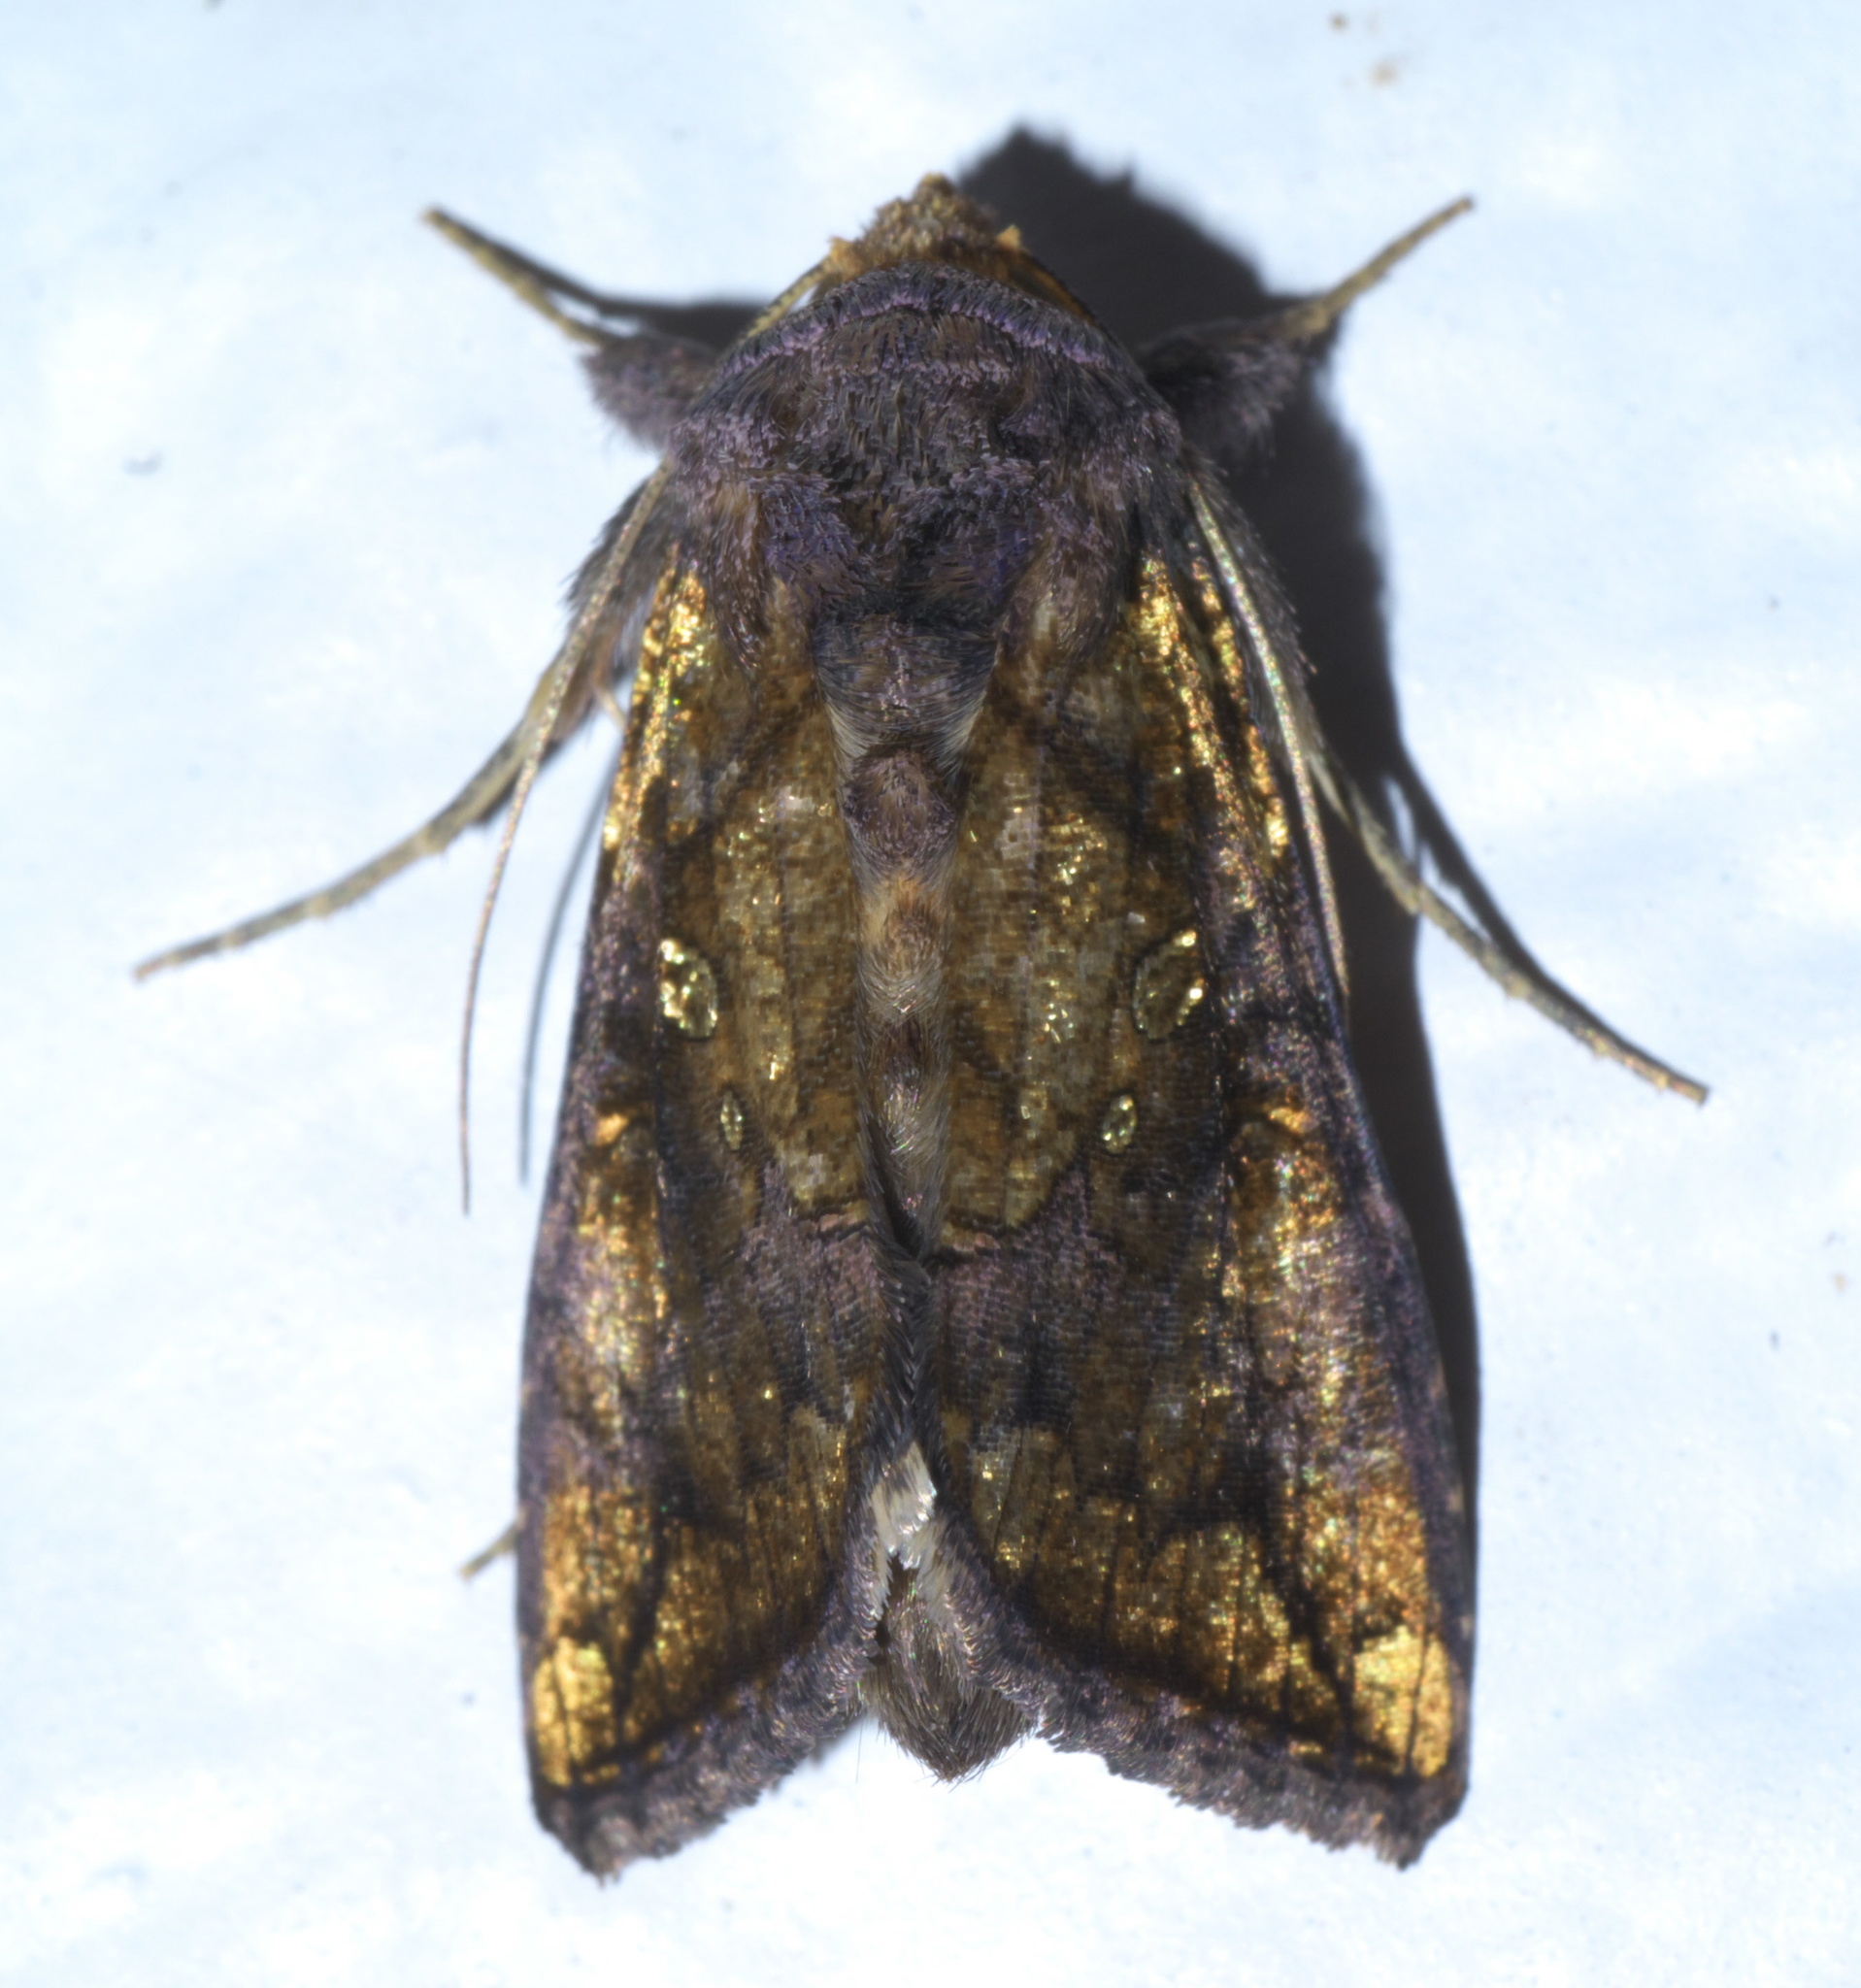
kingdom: Animalia
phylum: Arthropoda
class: Insecta
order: Lepidoptera
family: Noctuidae
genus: Argyrogramma
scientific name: Argyrogramma verruca
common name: Golden looper moth
